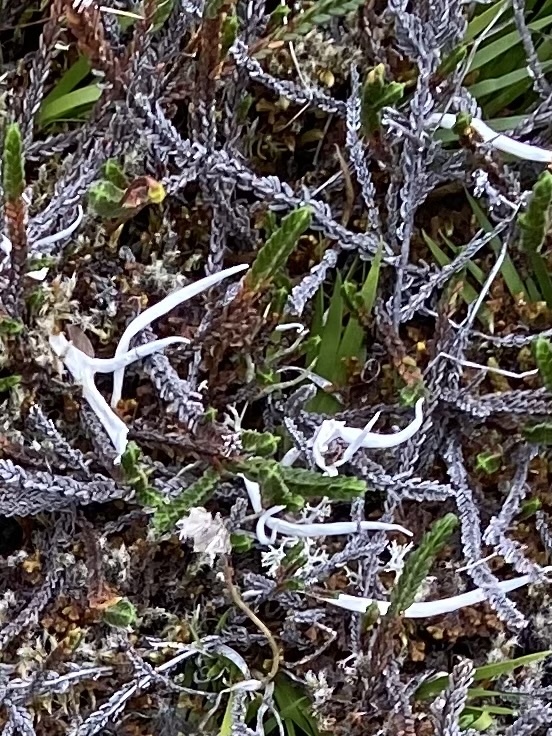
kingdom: Fungi
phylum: Ascomycota
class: Lecanoromycetes
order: Pertusariales
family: Icmadophilaceae
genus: Thamnolia
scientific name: Thamnolia vermicularis
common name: Whiteworm lichen
